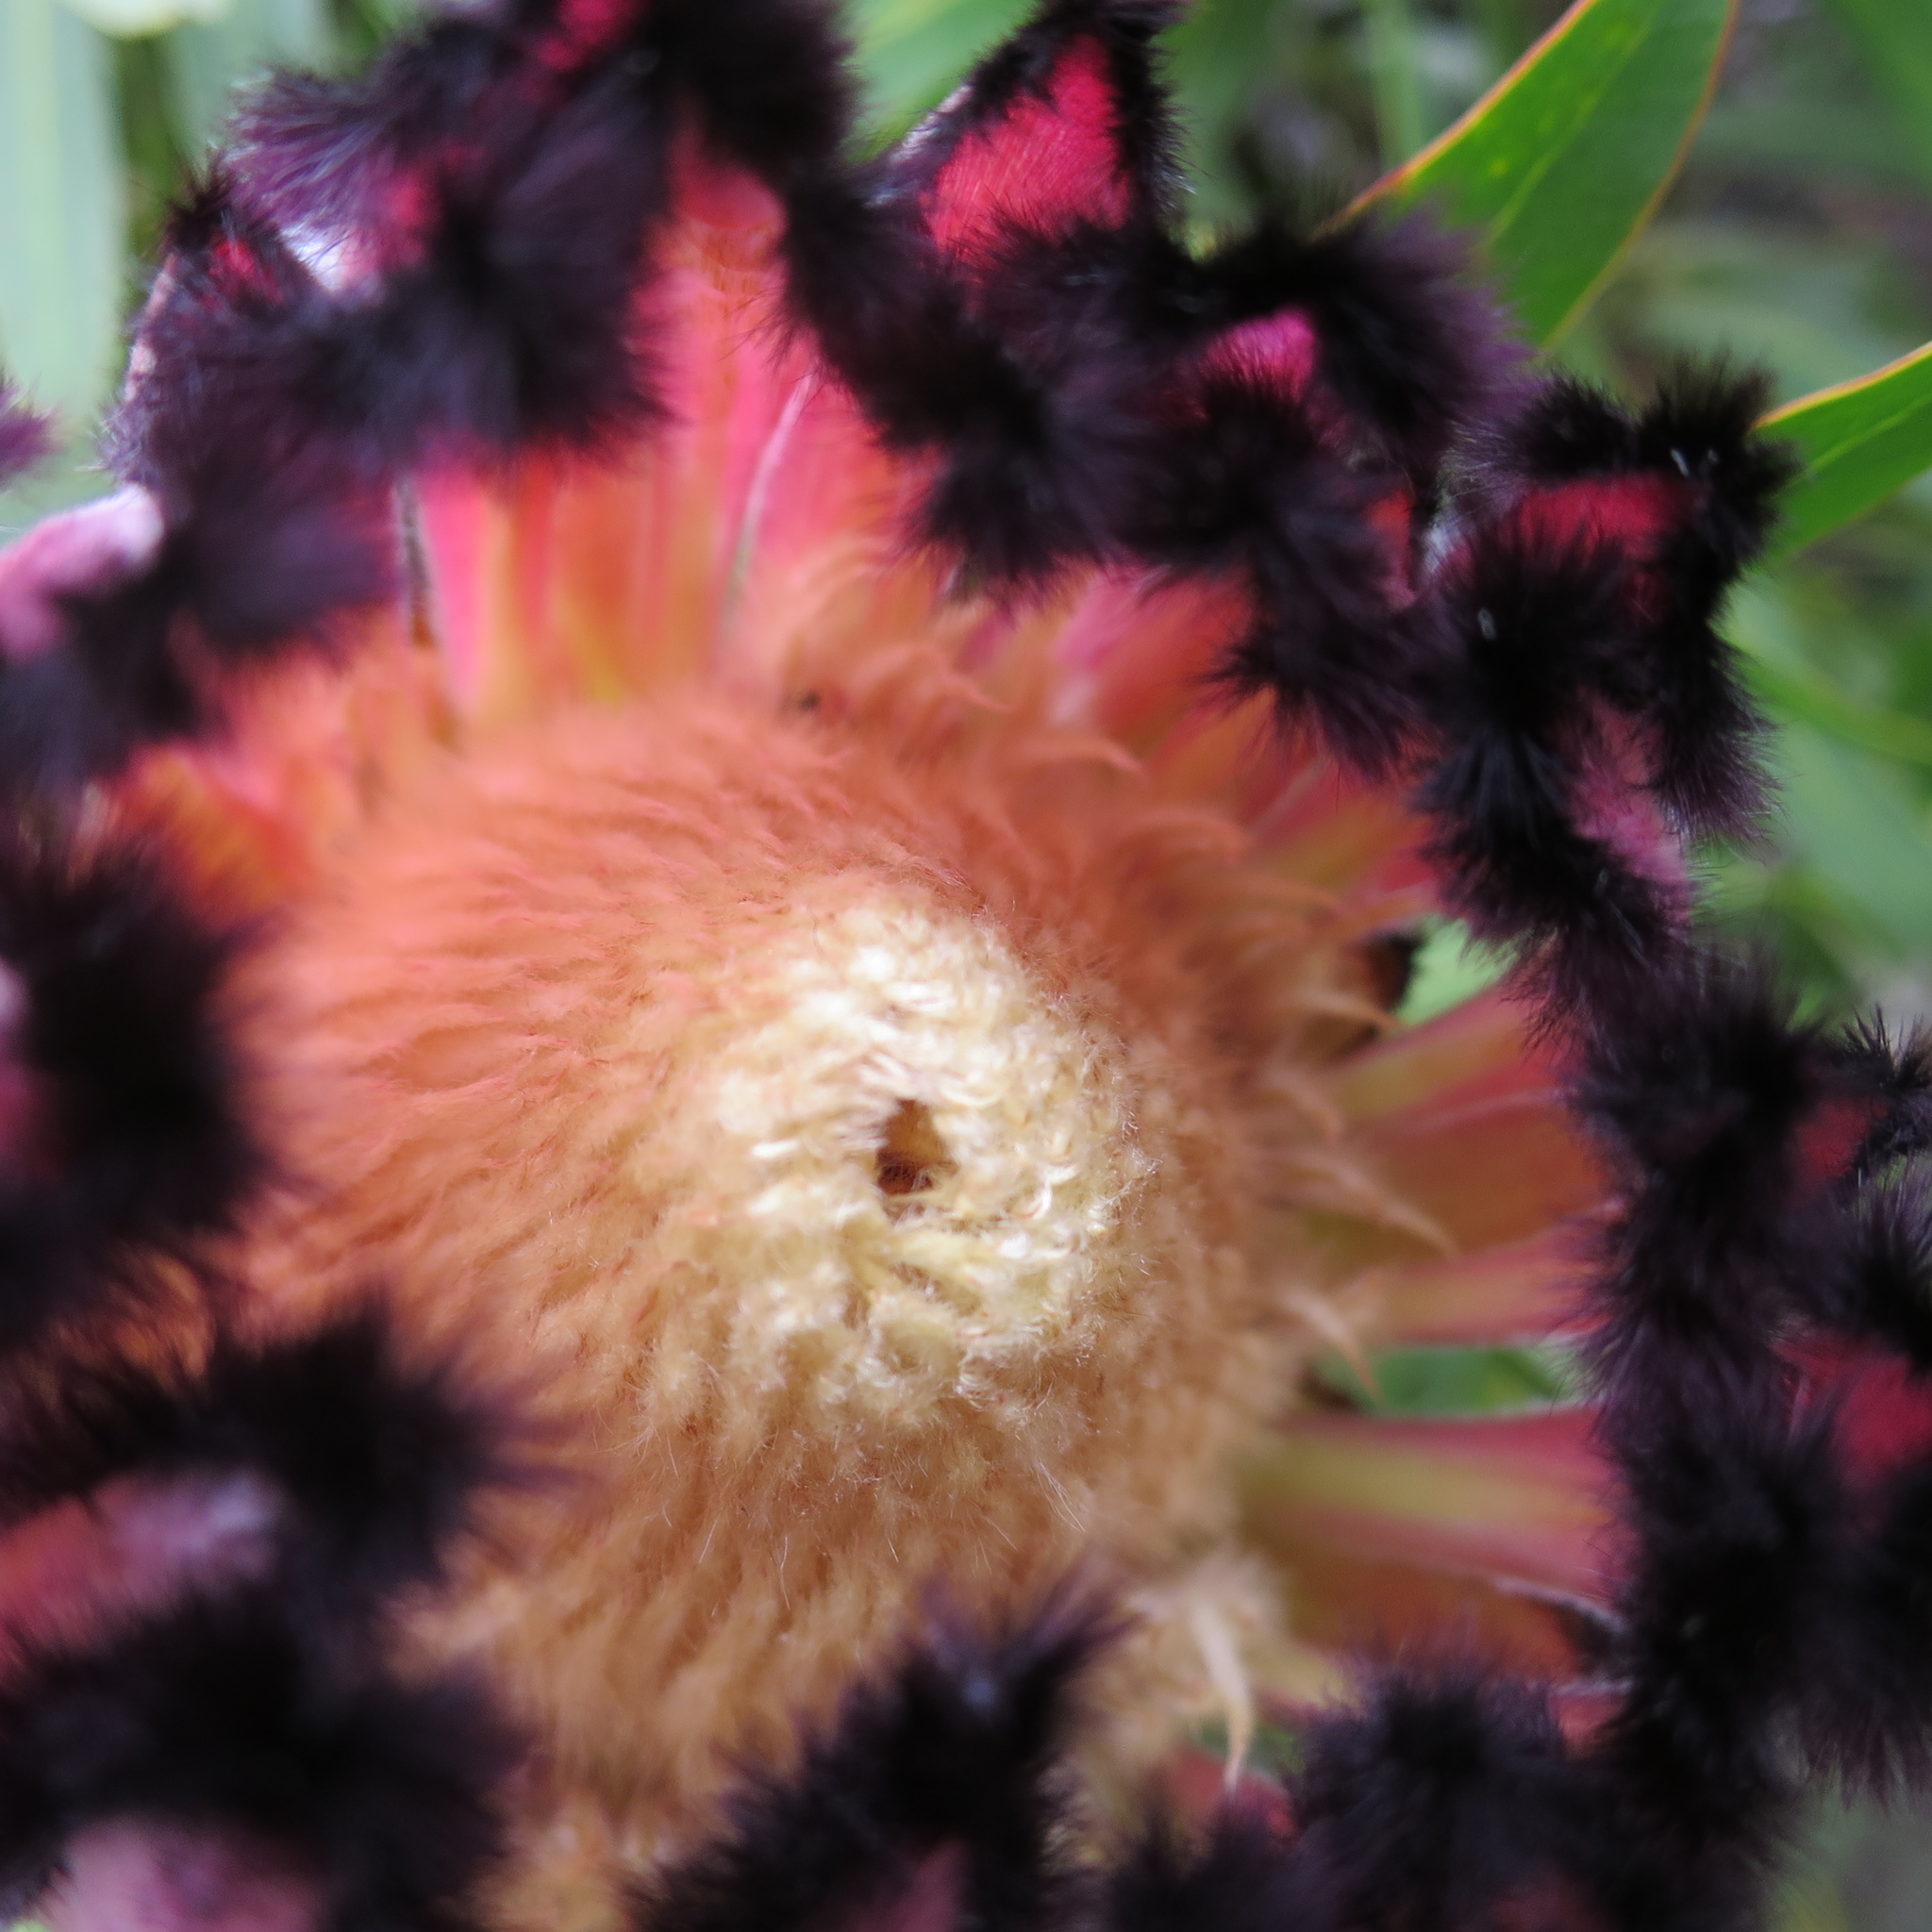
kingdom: Plantae
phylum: Tracheophyta
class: Magnoliopsida
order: Proteales
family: Proteaceae
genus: Protea
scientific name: Protea neriifolia
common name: Blue sugarbush
